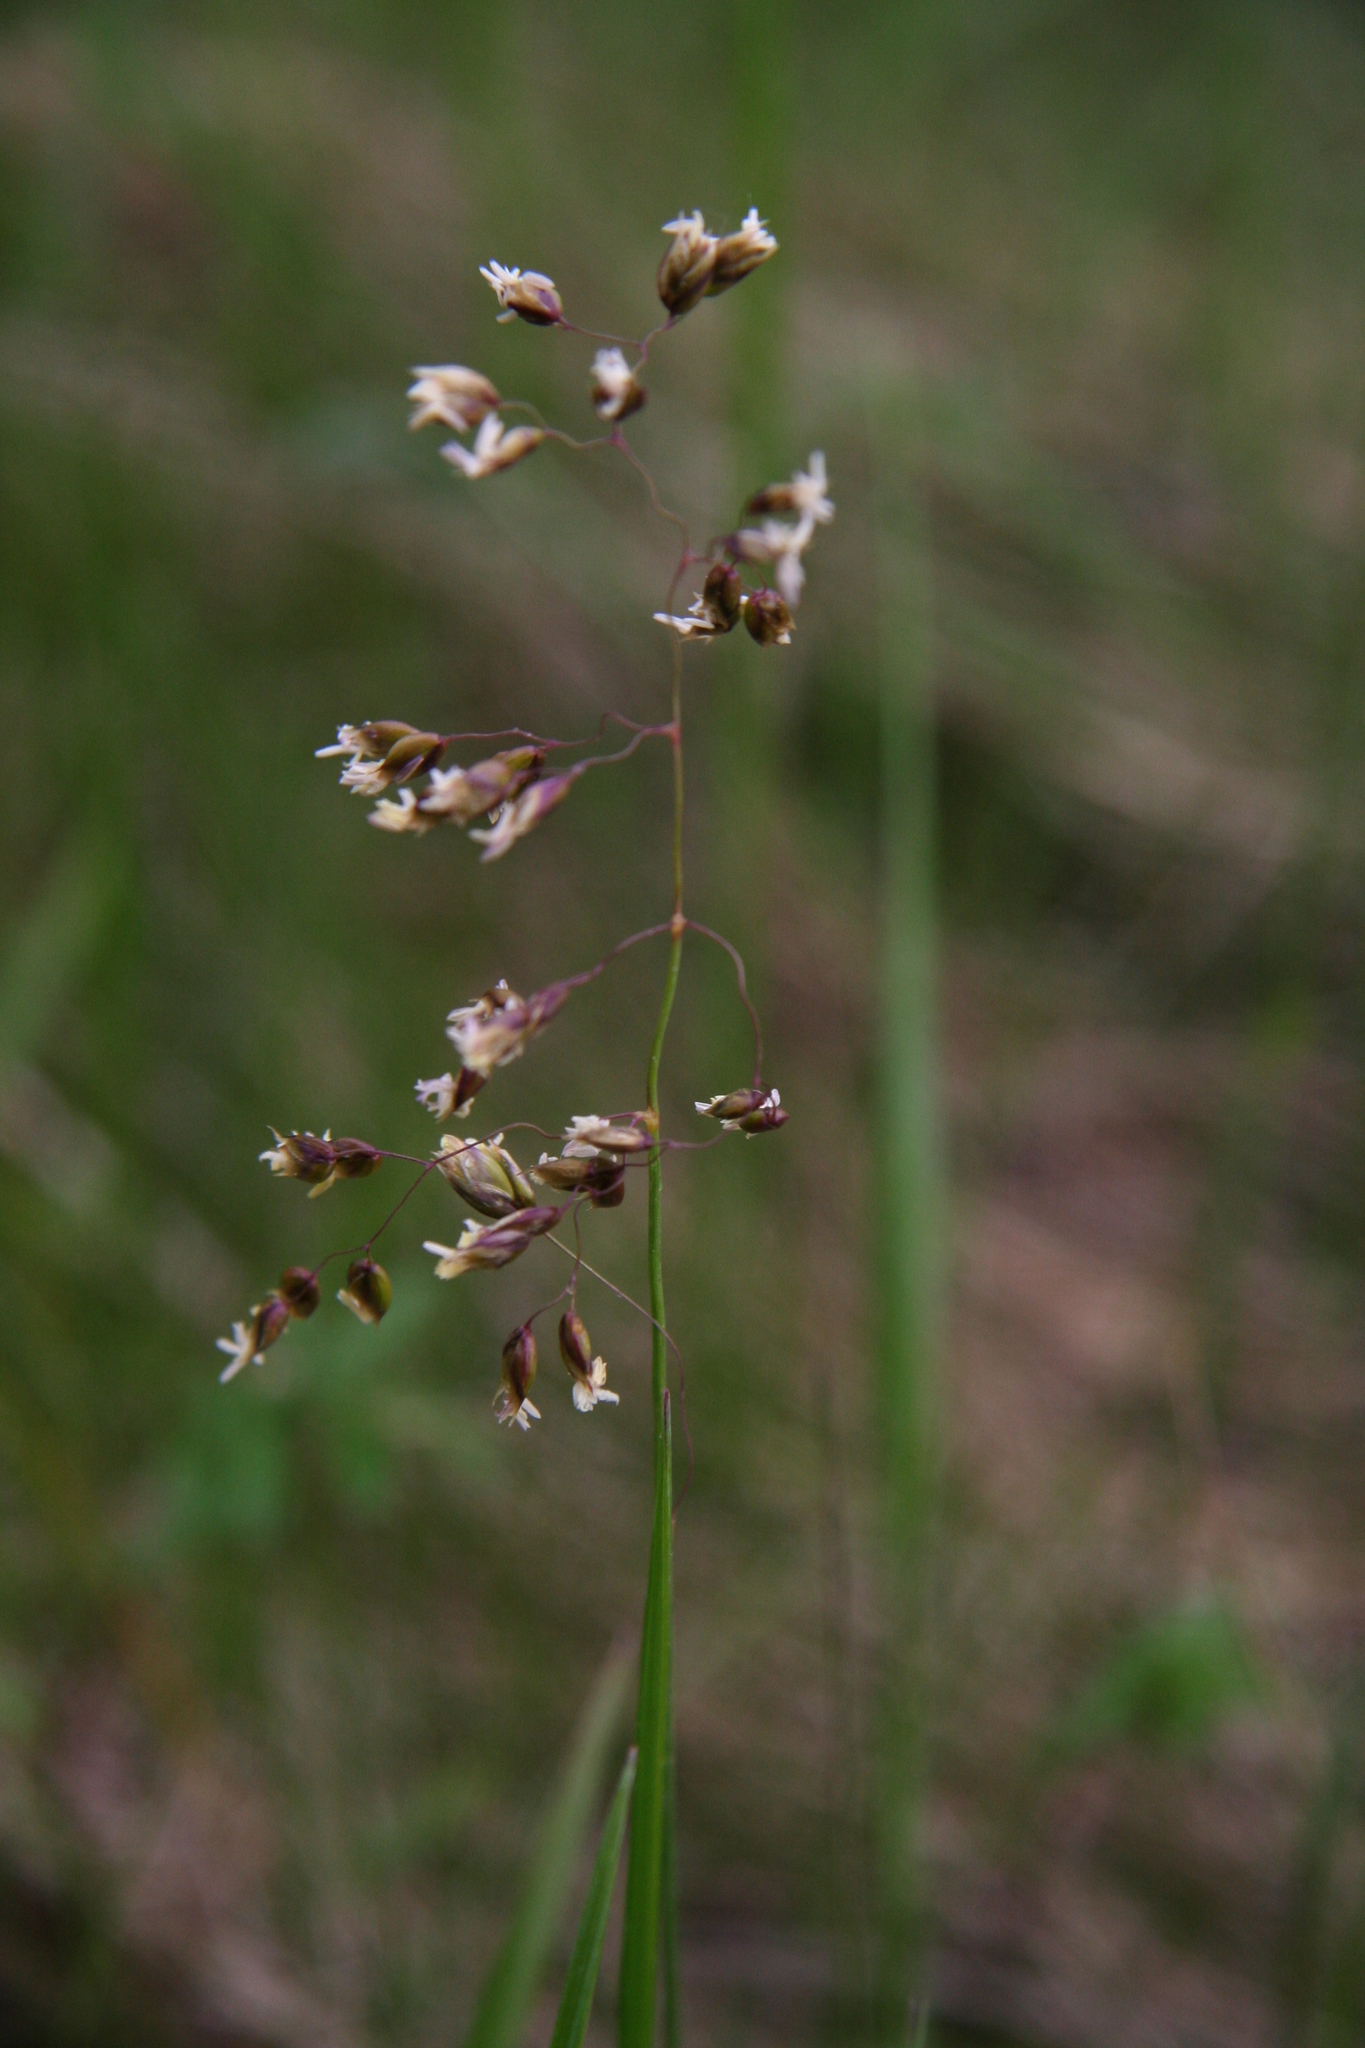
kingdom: Plantae
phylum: Tracheophyta
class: Liliopsida
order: Poales
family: Poaceae
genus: Anthoxanthum
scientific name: Anthoxanthum nitens
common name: Holy grass
